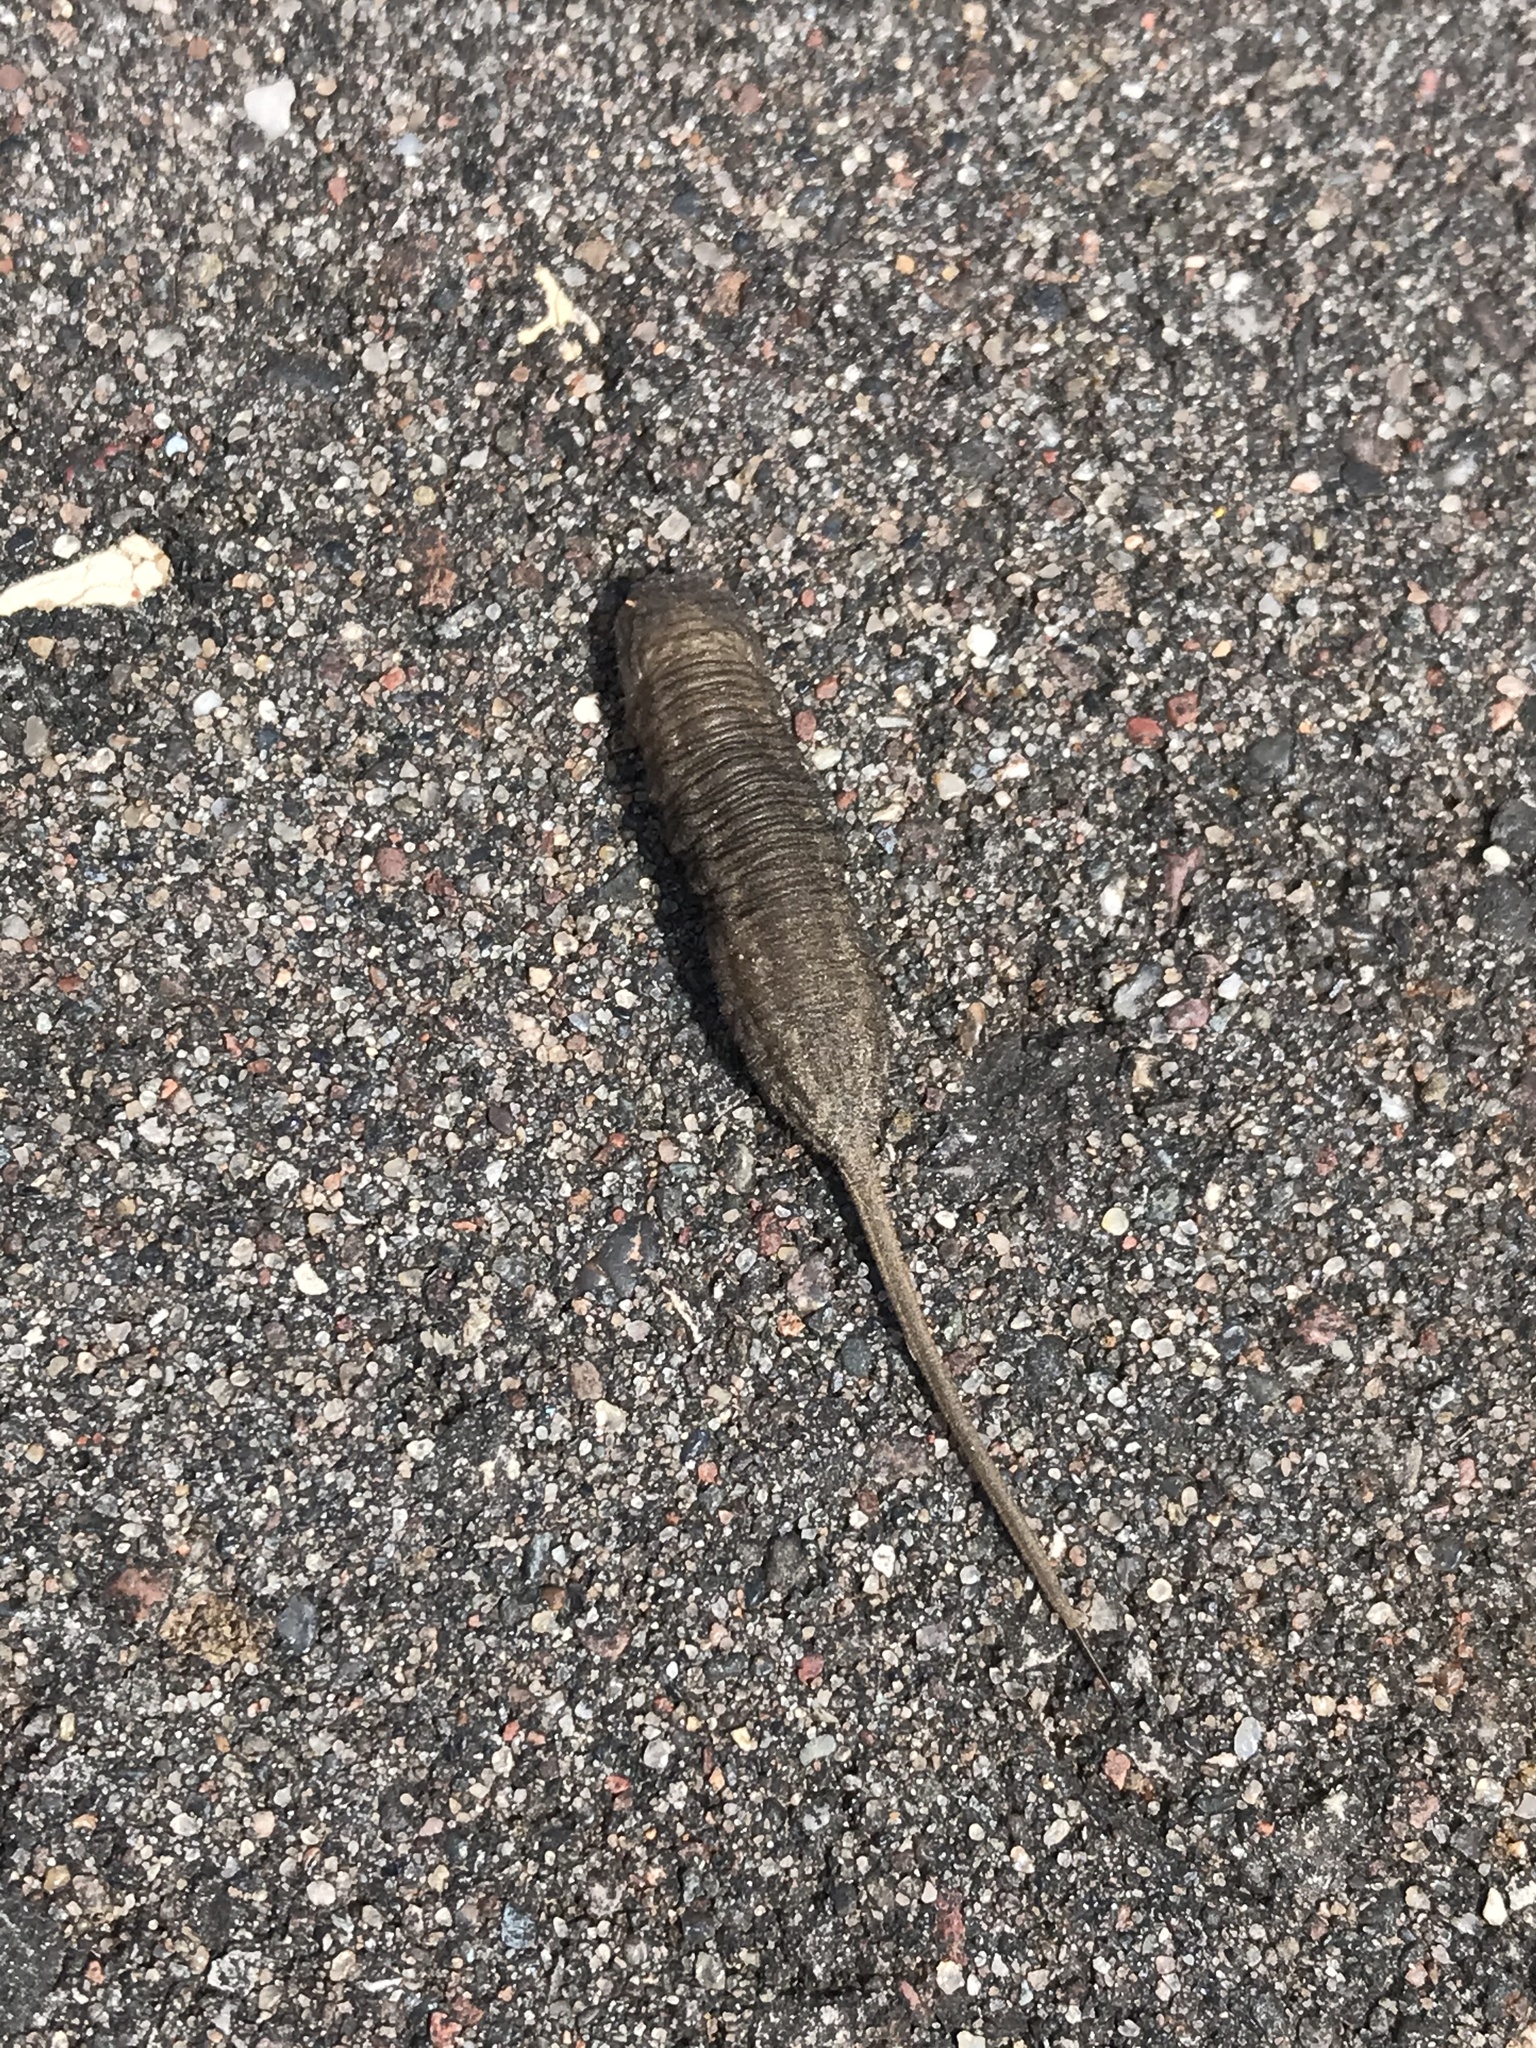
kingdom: Animalia
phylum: Arthropoda
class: Insecta
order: Diptera
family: Syrphidae
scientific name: Syrphidae
